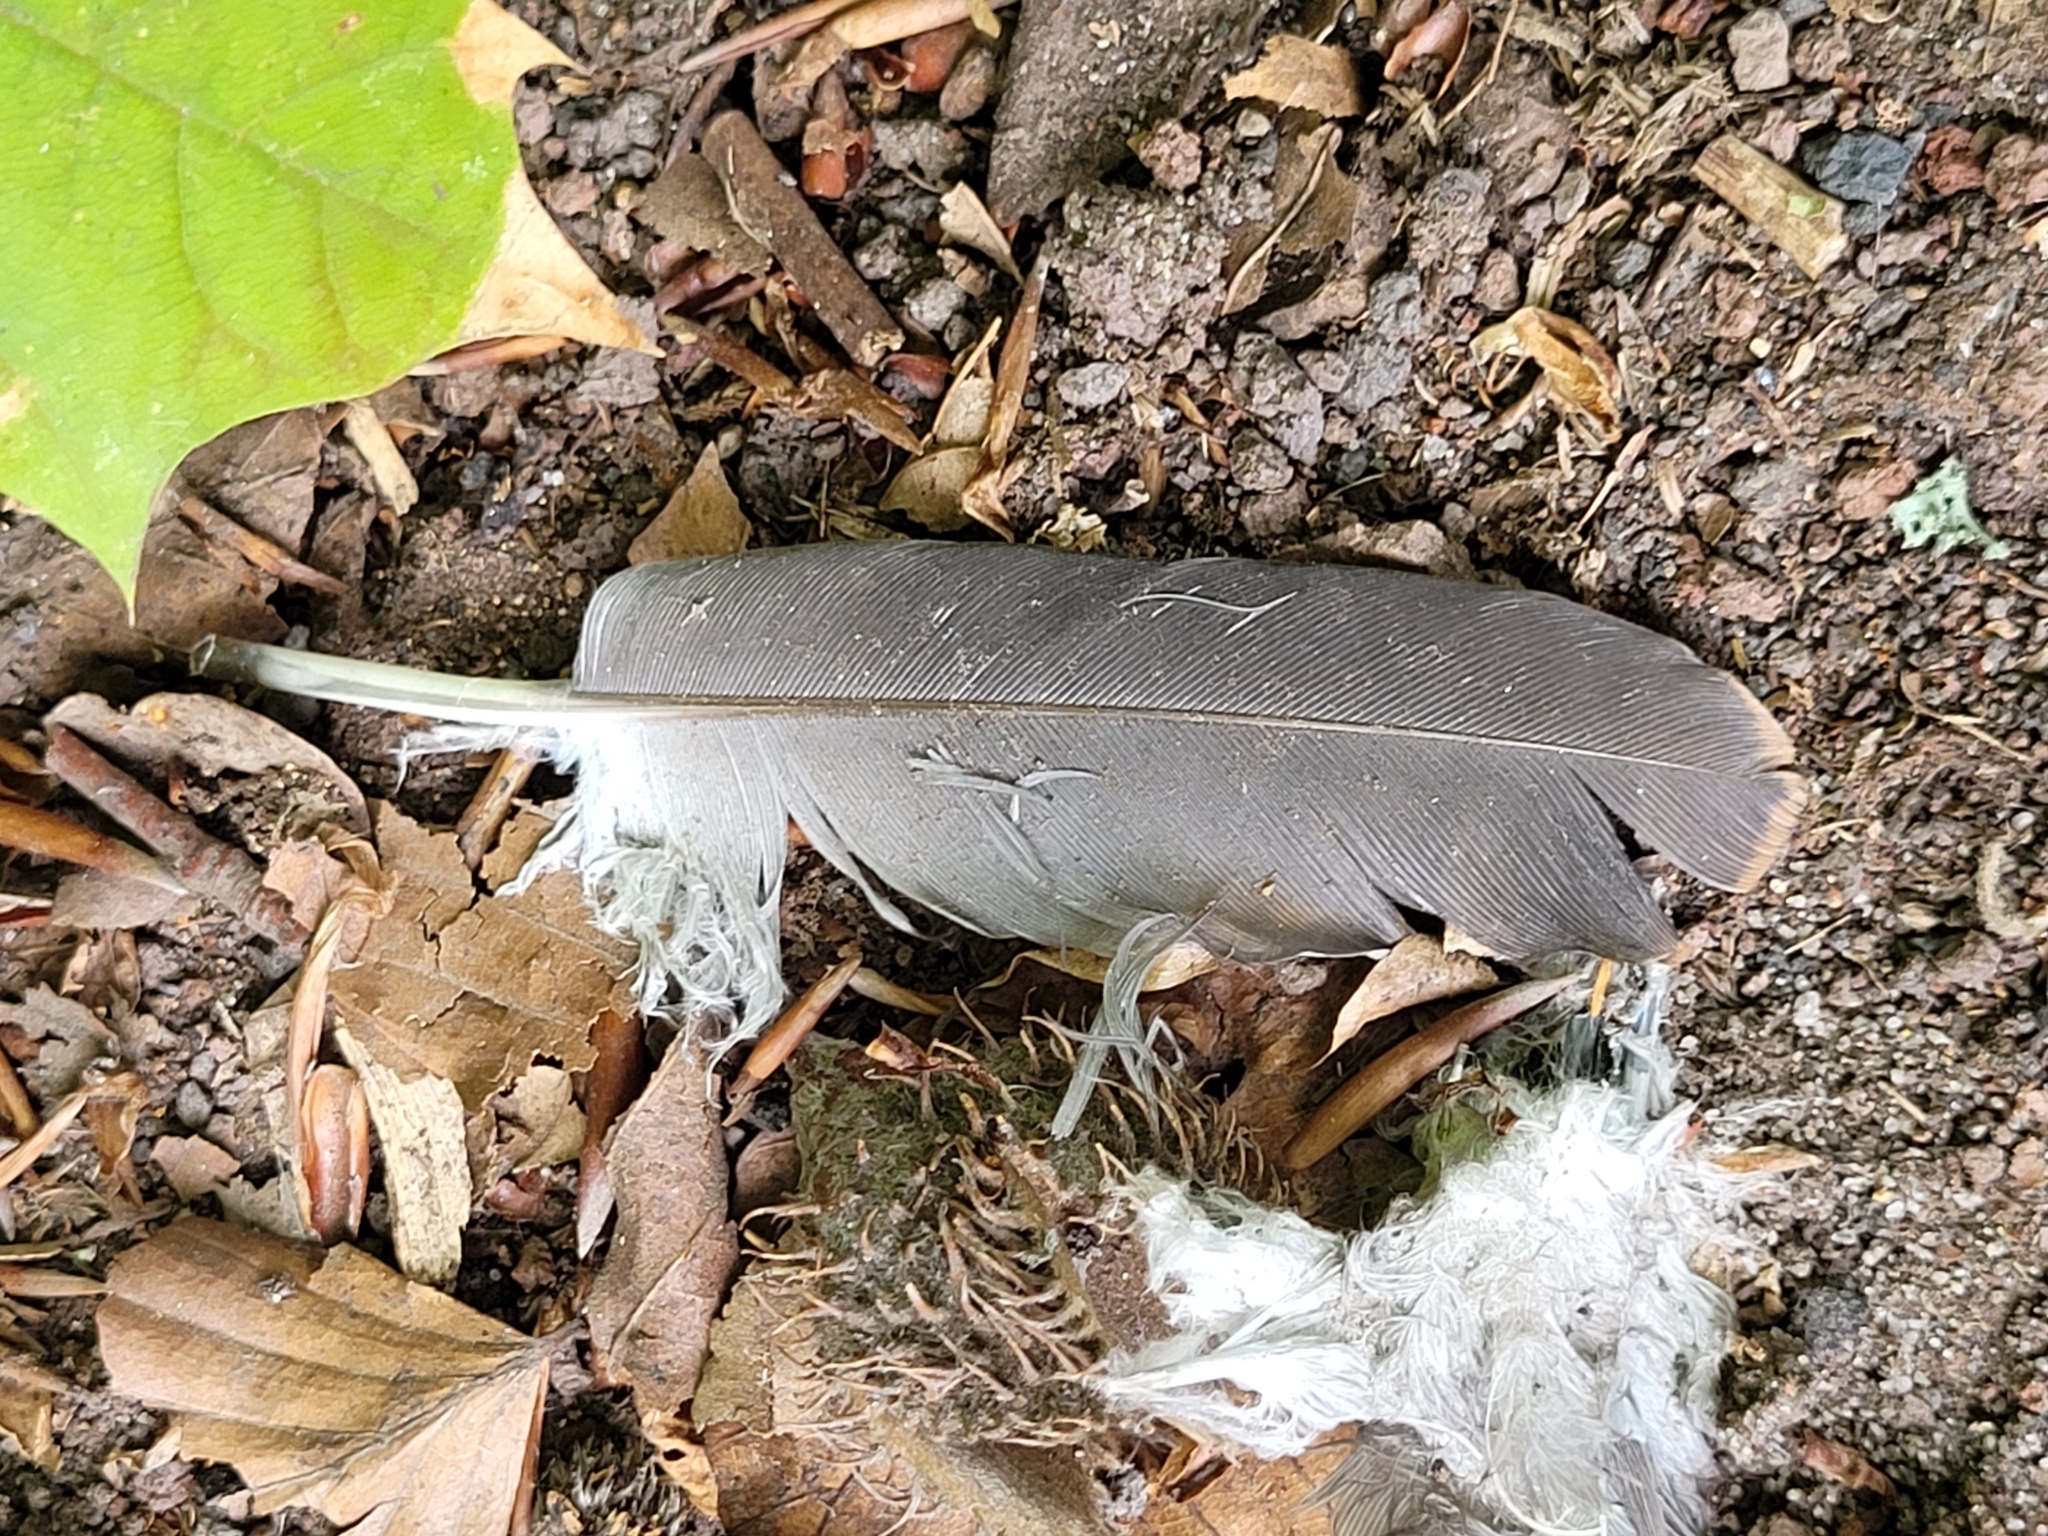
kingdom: Animalia
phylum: Chordata
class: Aves
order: Columbiformes
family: Columbidae
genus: Columba
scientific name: Columba palumbus
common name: Common wood pigeon
